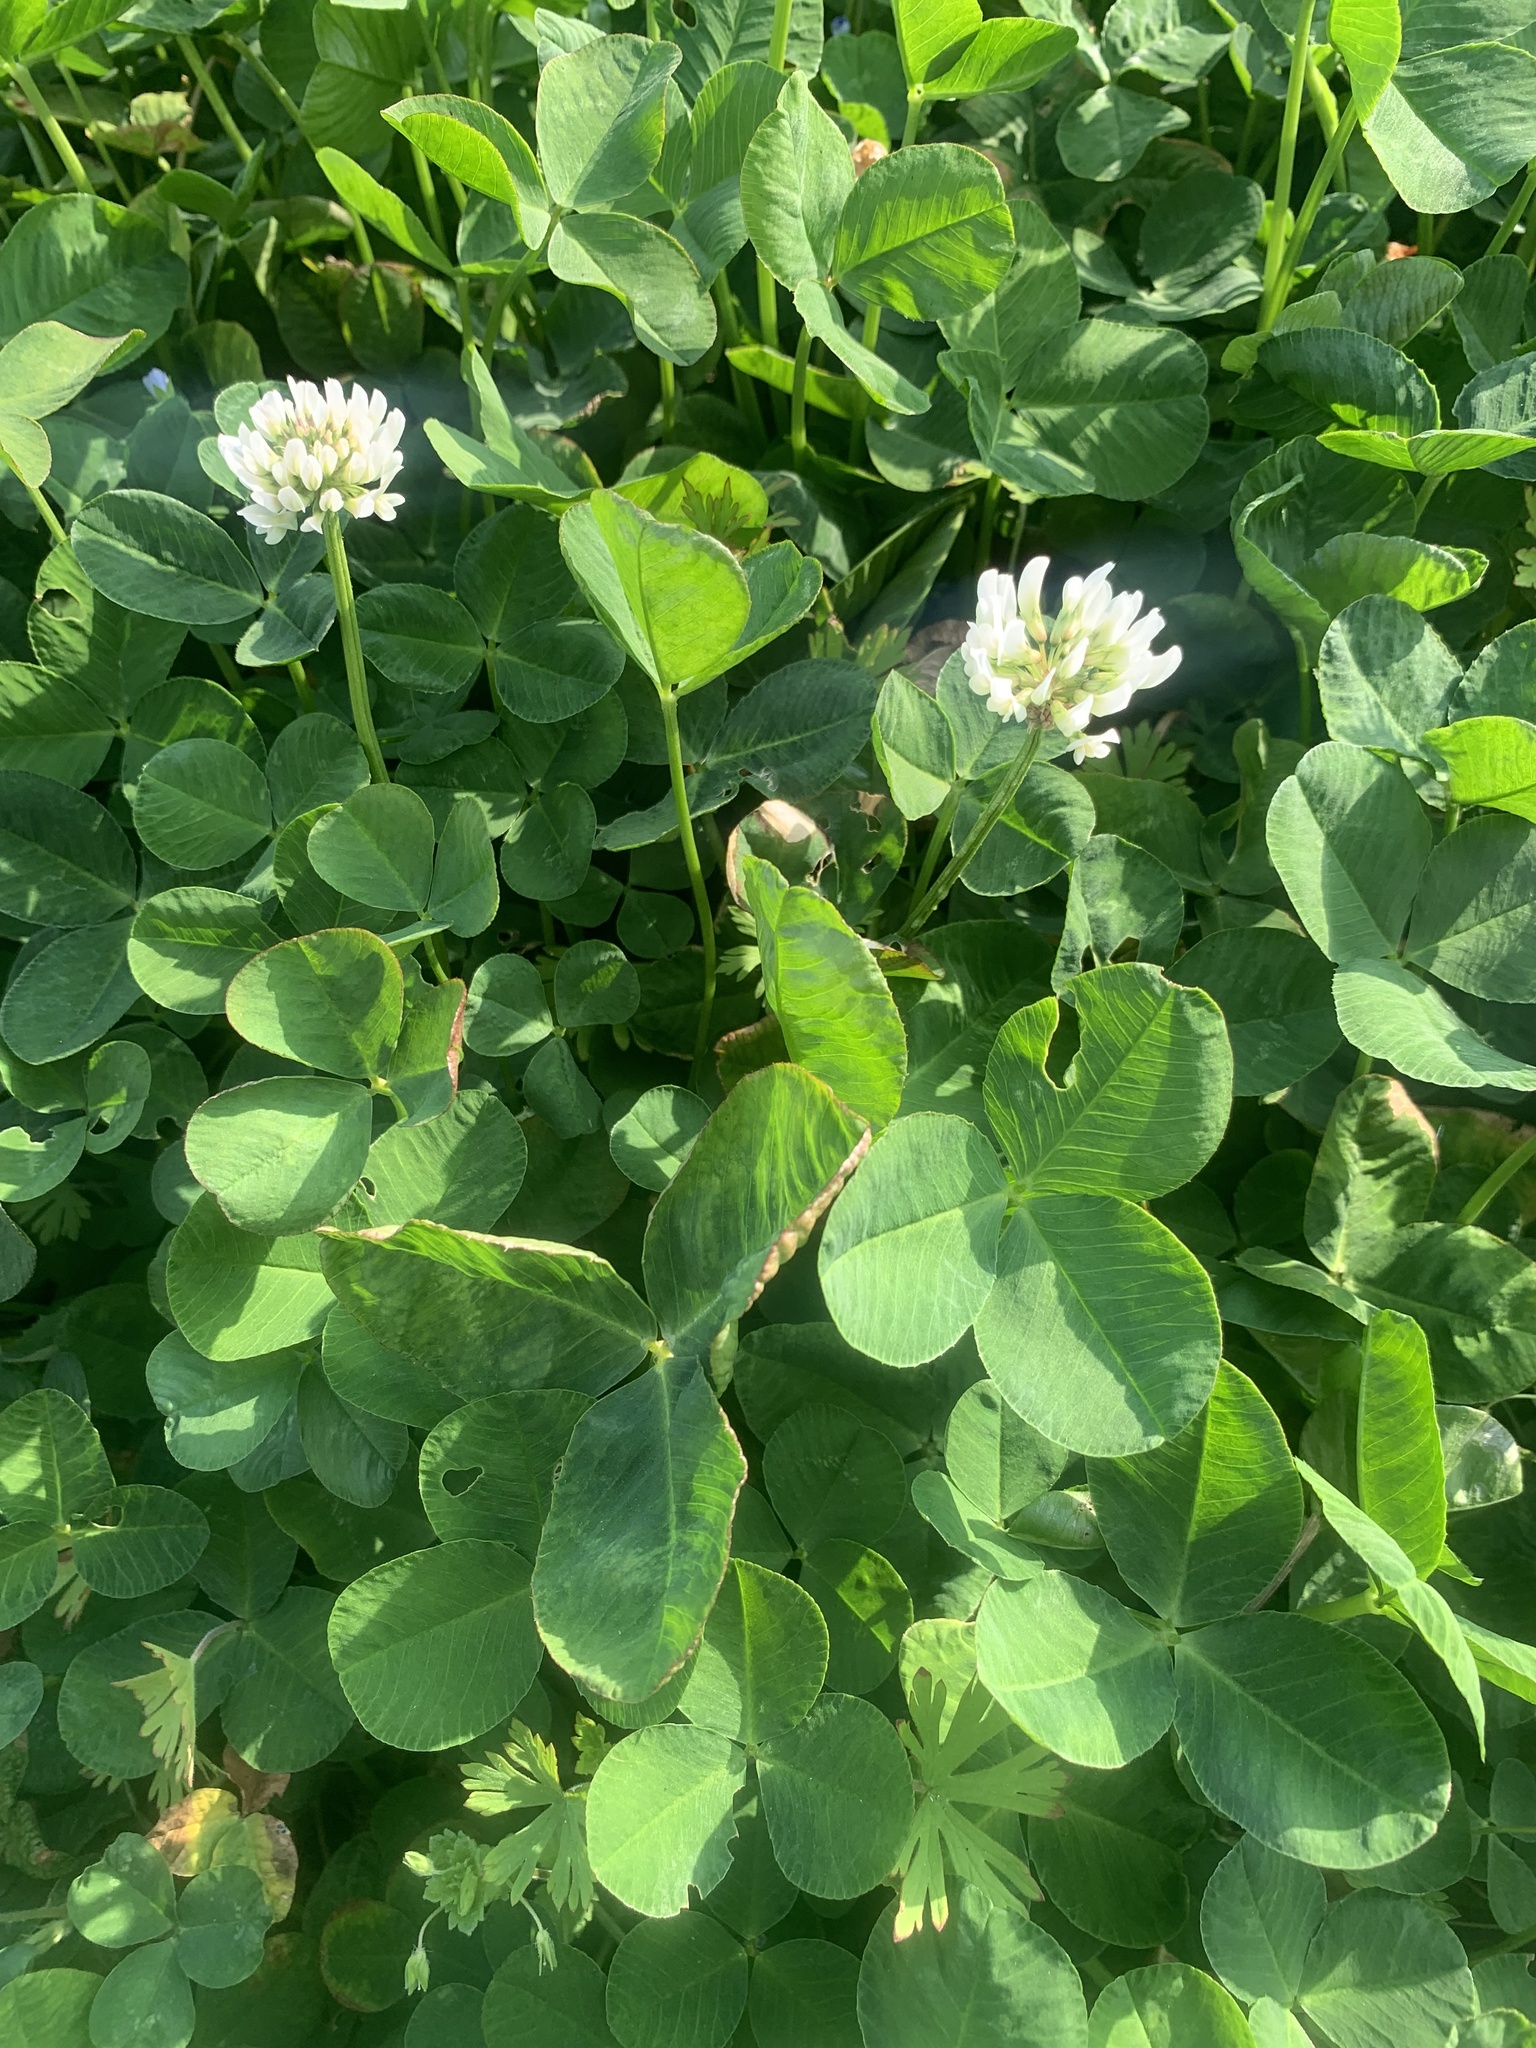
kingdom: Plantae
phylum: Tracheophyta
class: Magnoliopsida
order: Fabales
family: Fabaceae
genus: Trifolium
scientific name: Trifolium repens
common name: White clover
